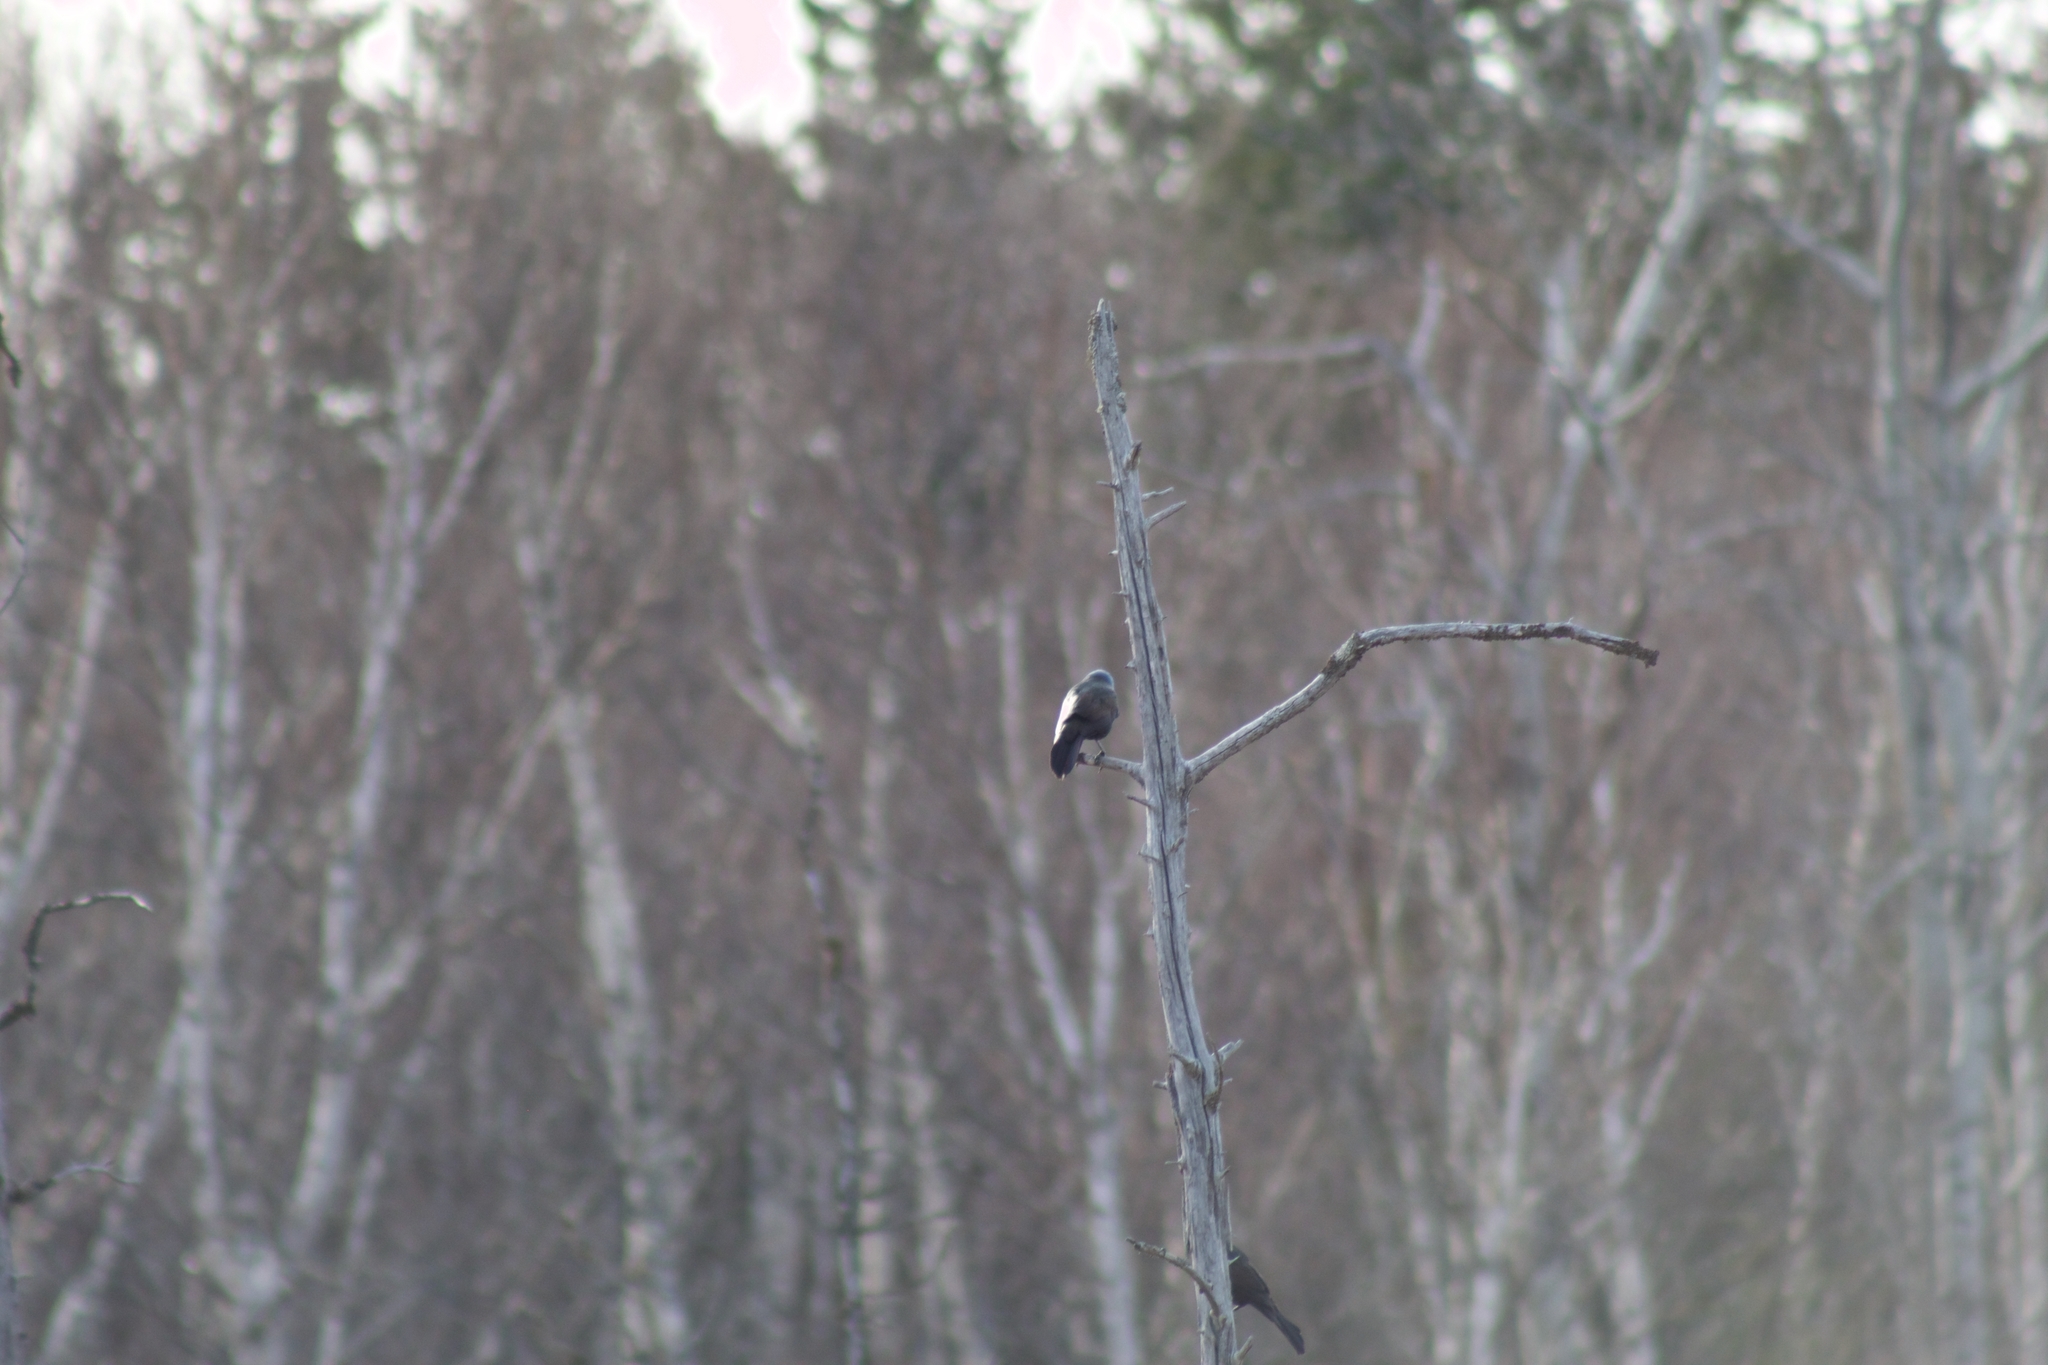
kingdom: Animalia
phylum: Chordata
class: Aves
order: Passeriformes
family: Icteridae
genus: Quiscalus
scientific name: Quiscalus quiscula
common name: Common grackle
